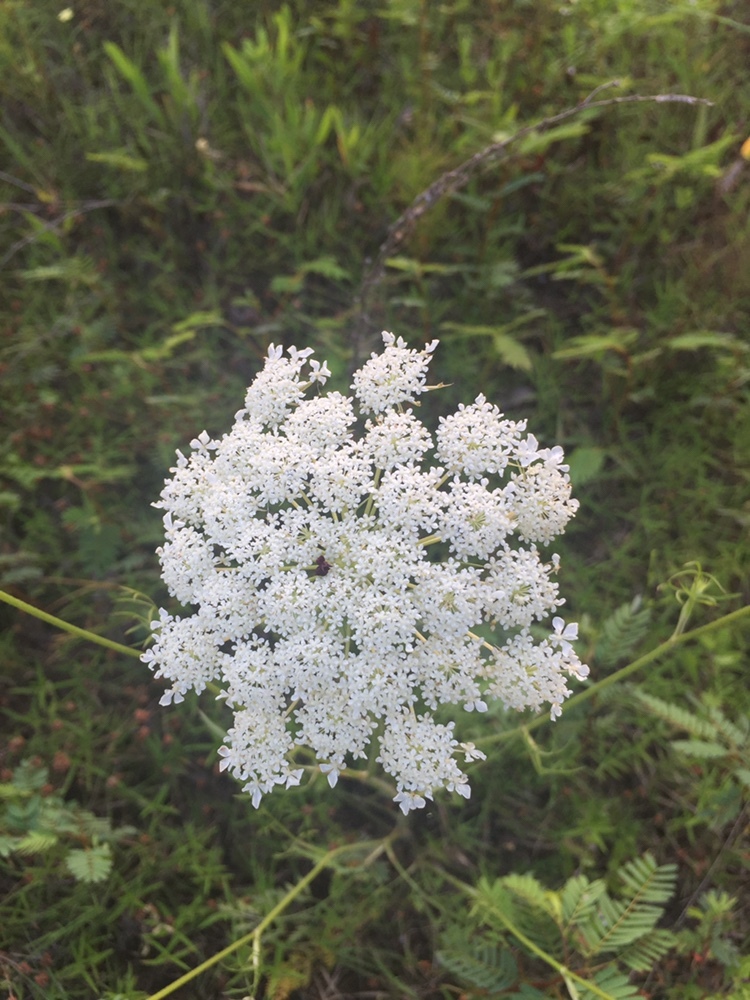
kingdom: Plantae
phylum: Tracheophyta
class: Magnoliopsida
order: Apiales
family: Apiaceae
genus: Daucus
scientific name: Daucus carota
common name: Wild carrot
